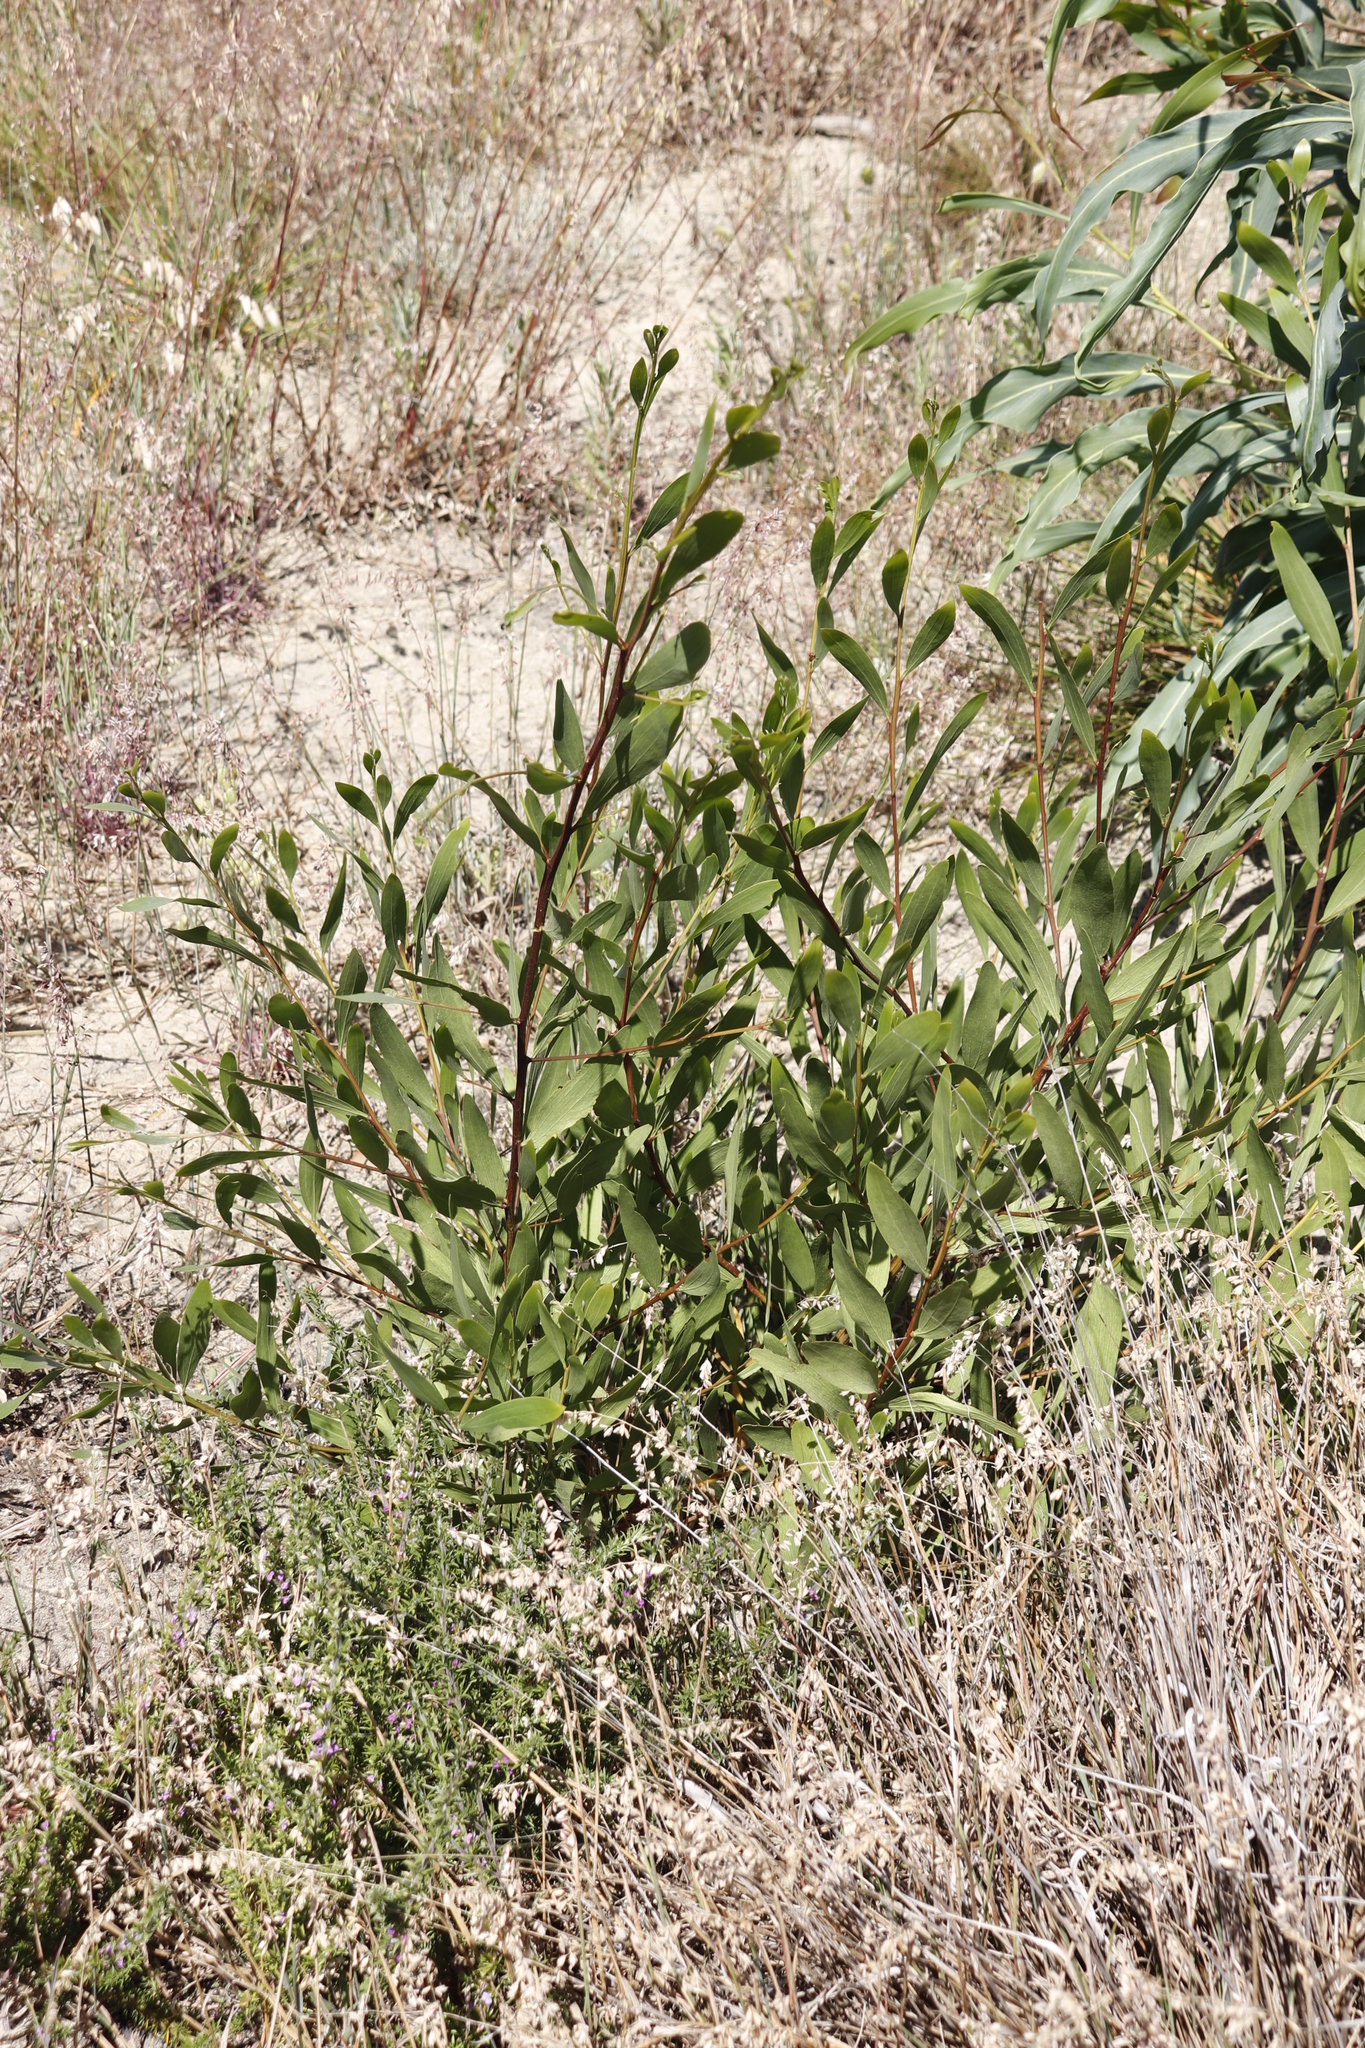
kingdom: Plantae
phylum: Tracheophyta
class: Magnoliopsida
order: Fabales
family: Fabaceae
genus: Acacia
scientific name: Acacia longifolia
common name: Sydney golden wattle
